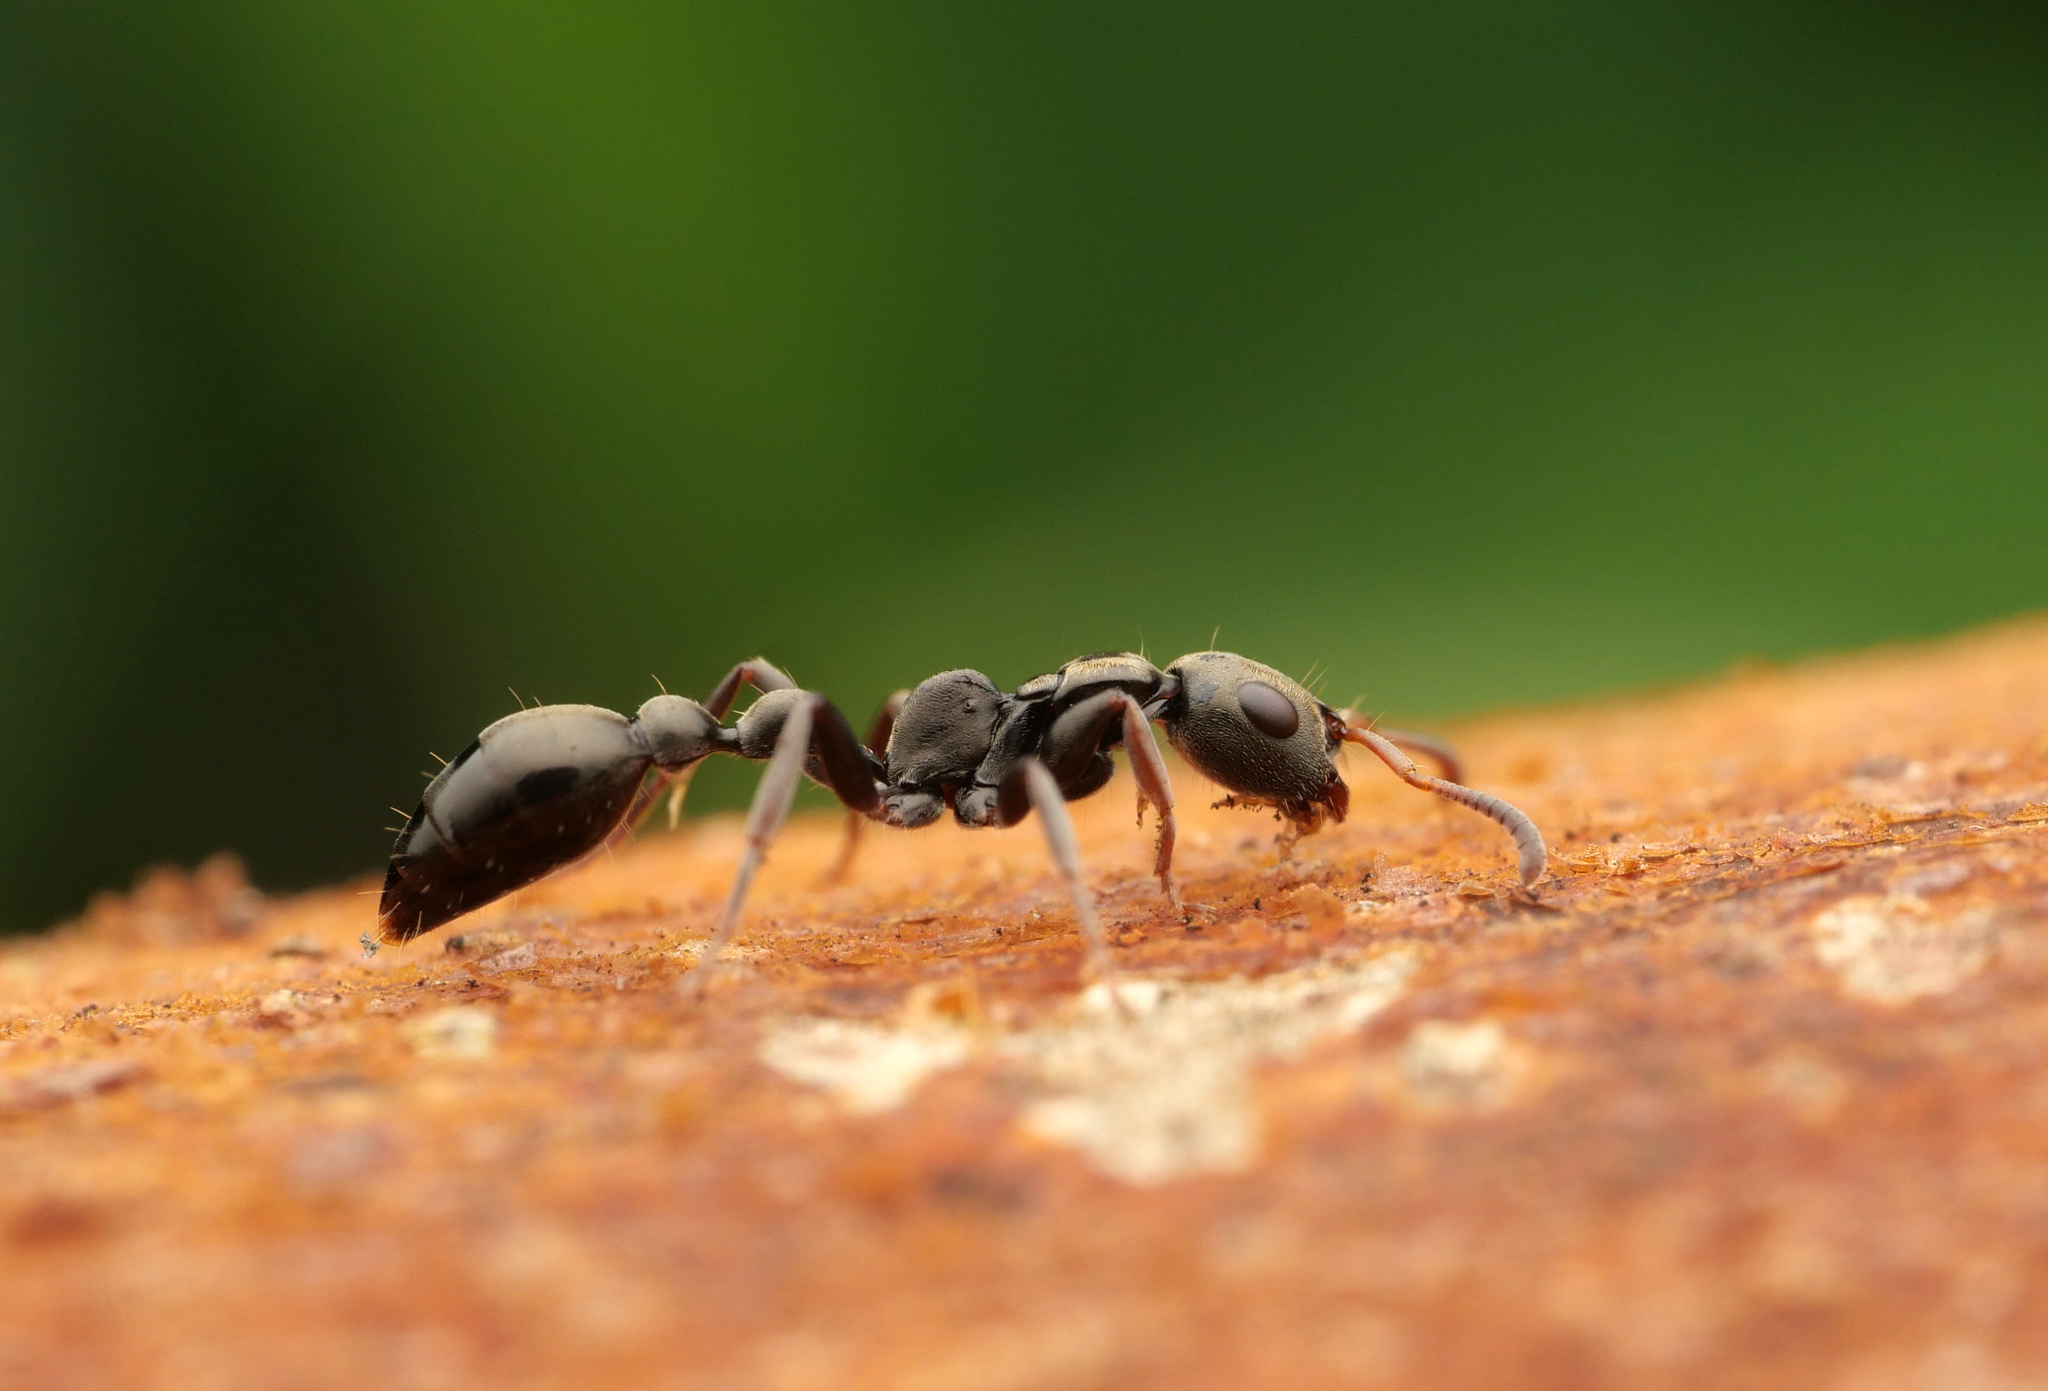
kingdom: Animalia
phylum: Arthropoda
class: Insecta
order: Hymenoptera
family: Formicidae
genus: Tetraponera
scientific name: Tetraponera atra
